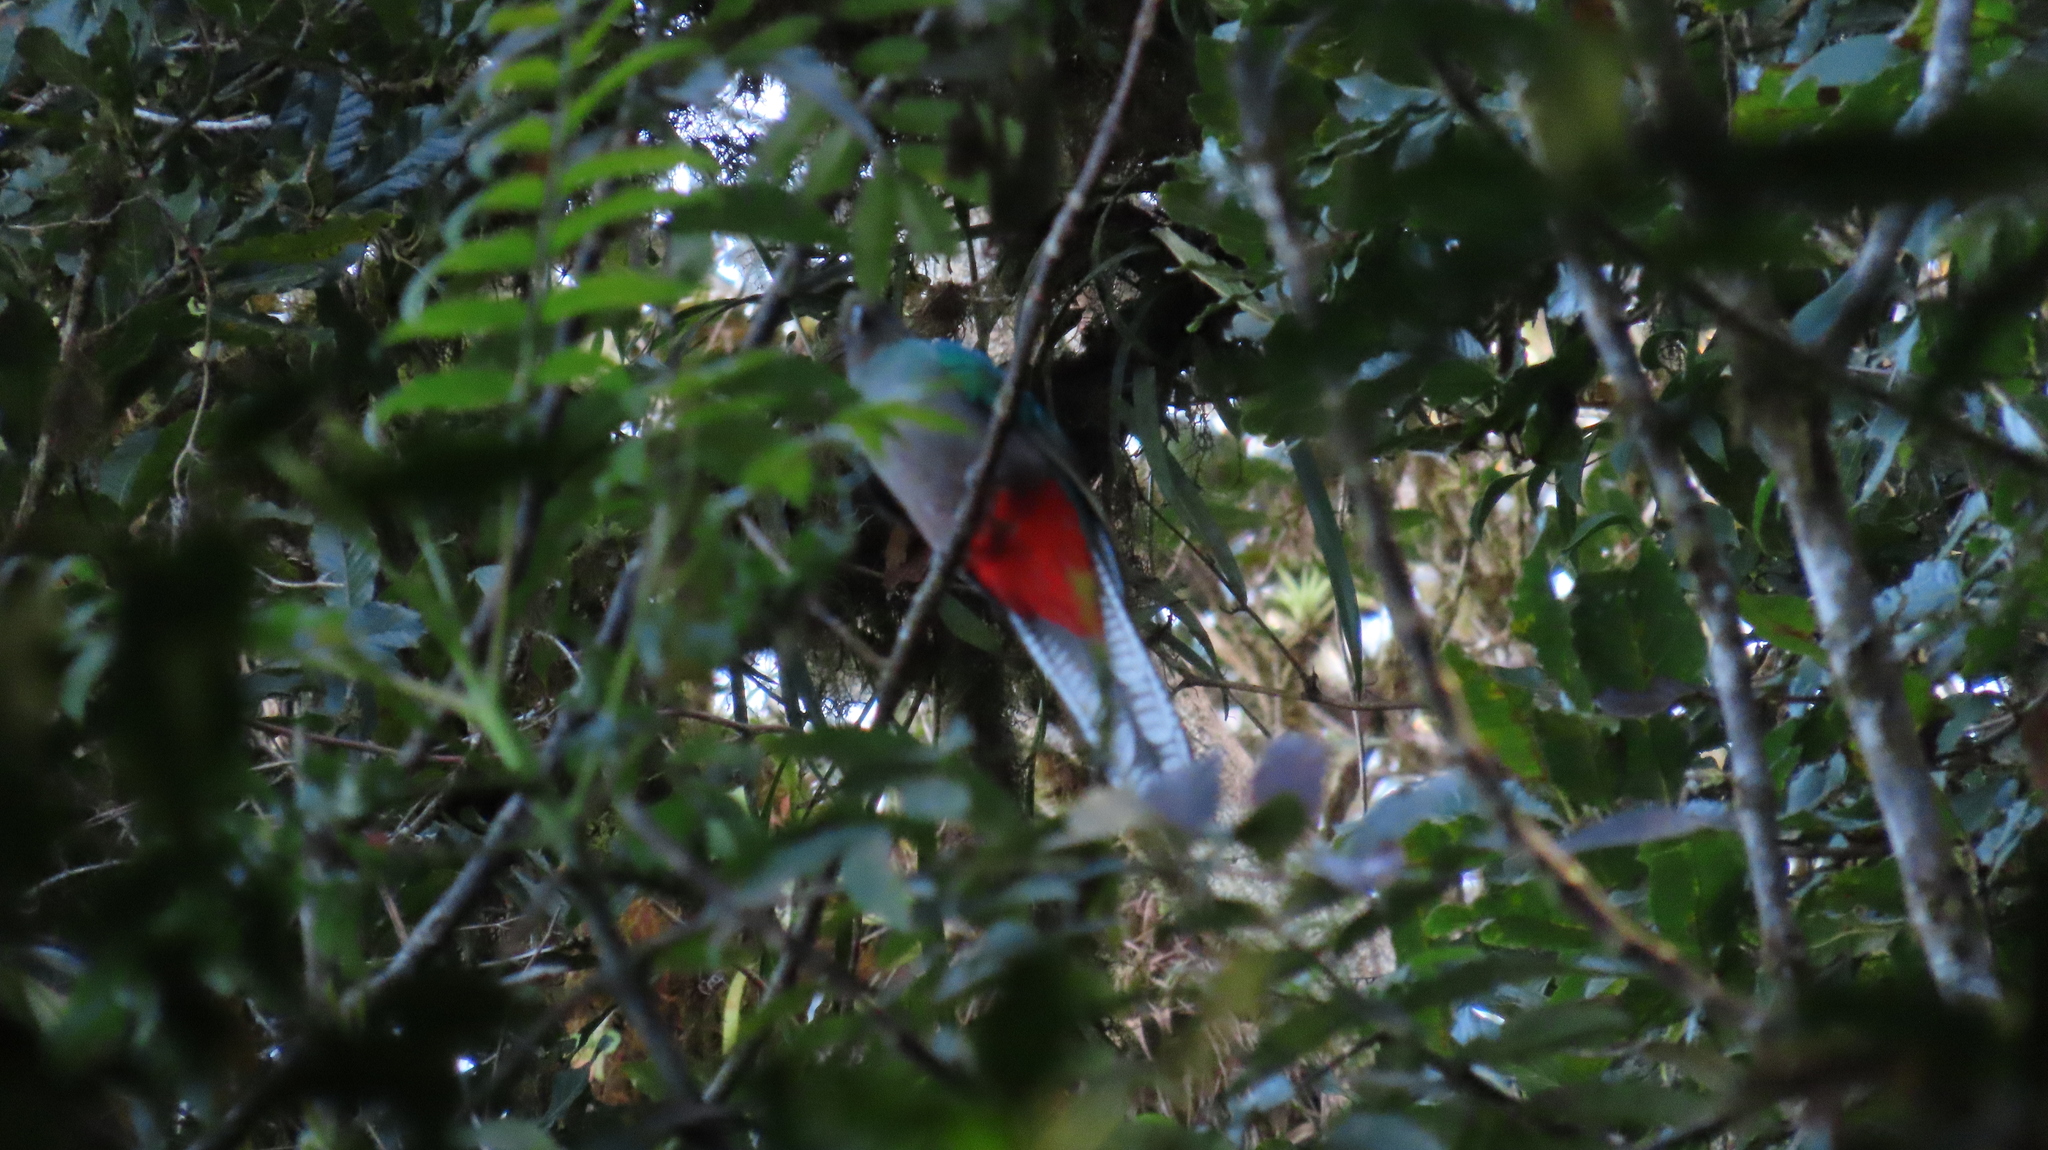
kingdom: Animalia
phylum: Chordata
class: Aves
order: Trogoniformes
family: Trogonidae
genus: Pharomachrus
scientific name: Pharomachrus mocinno
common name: Resplendent quetzal
